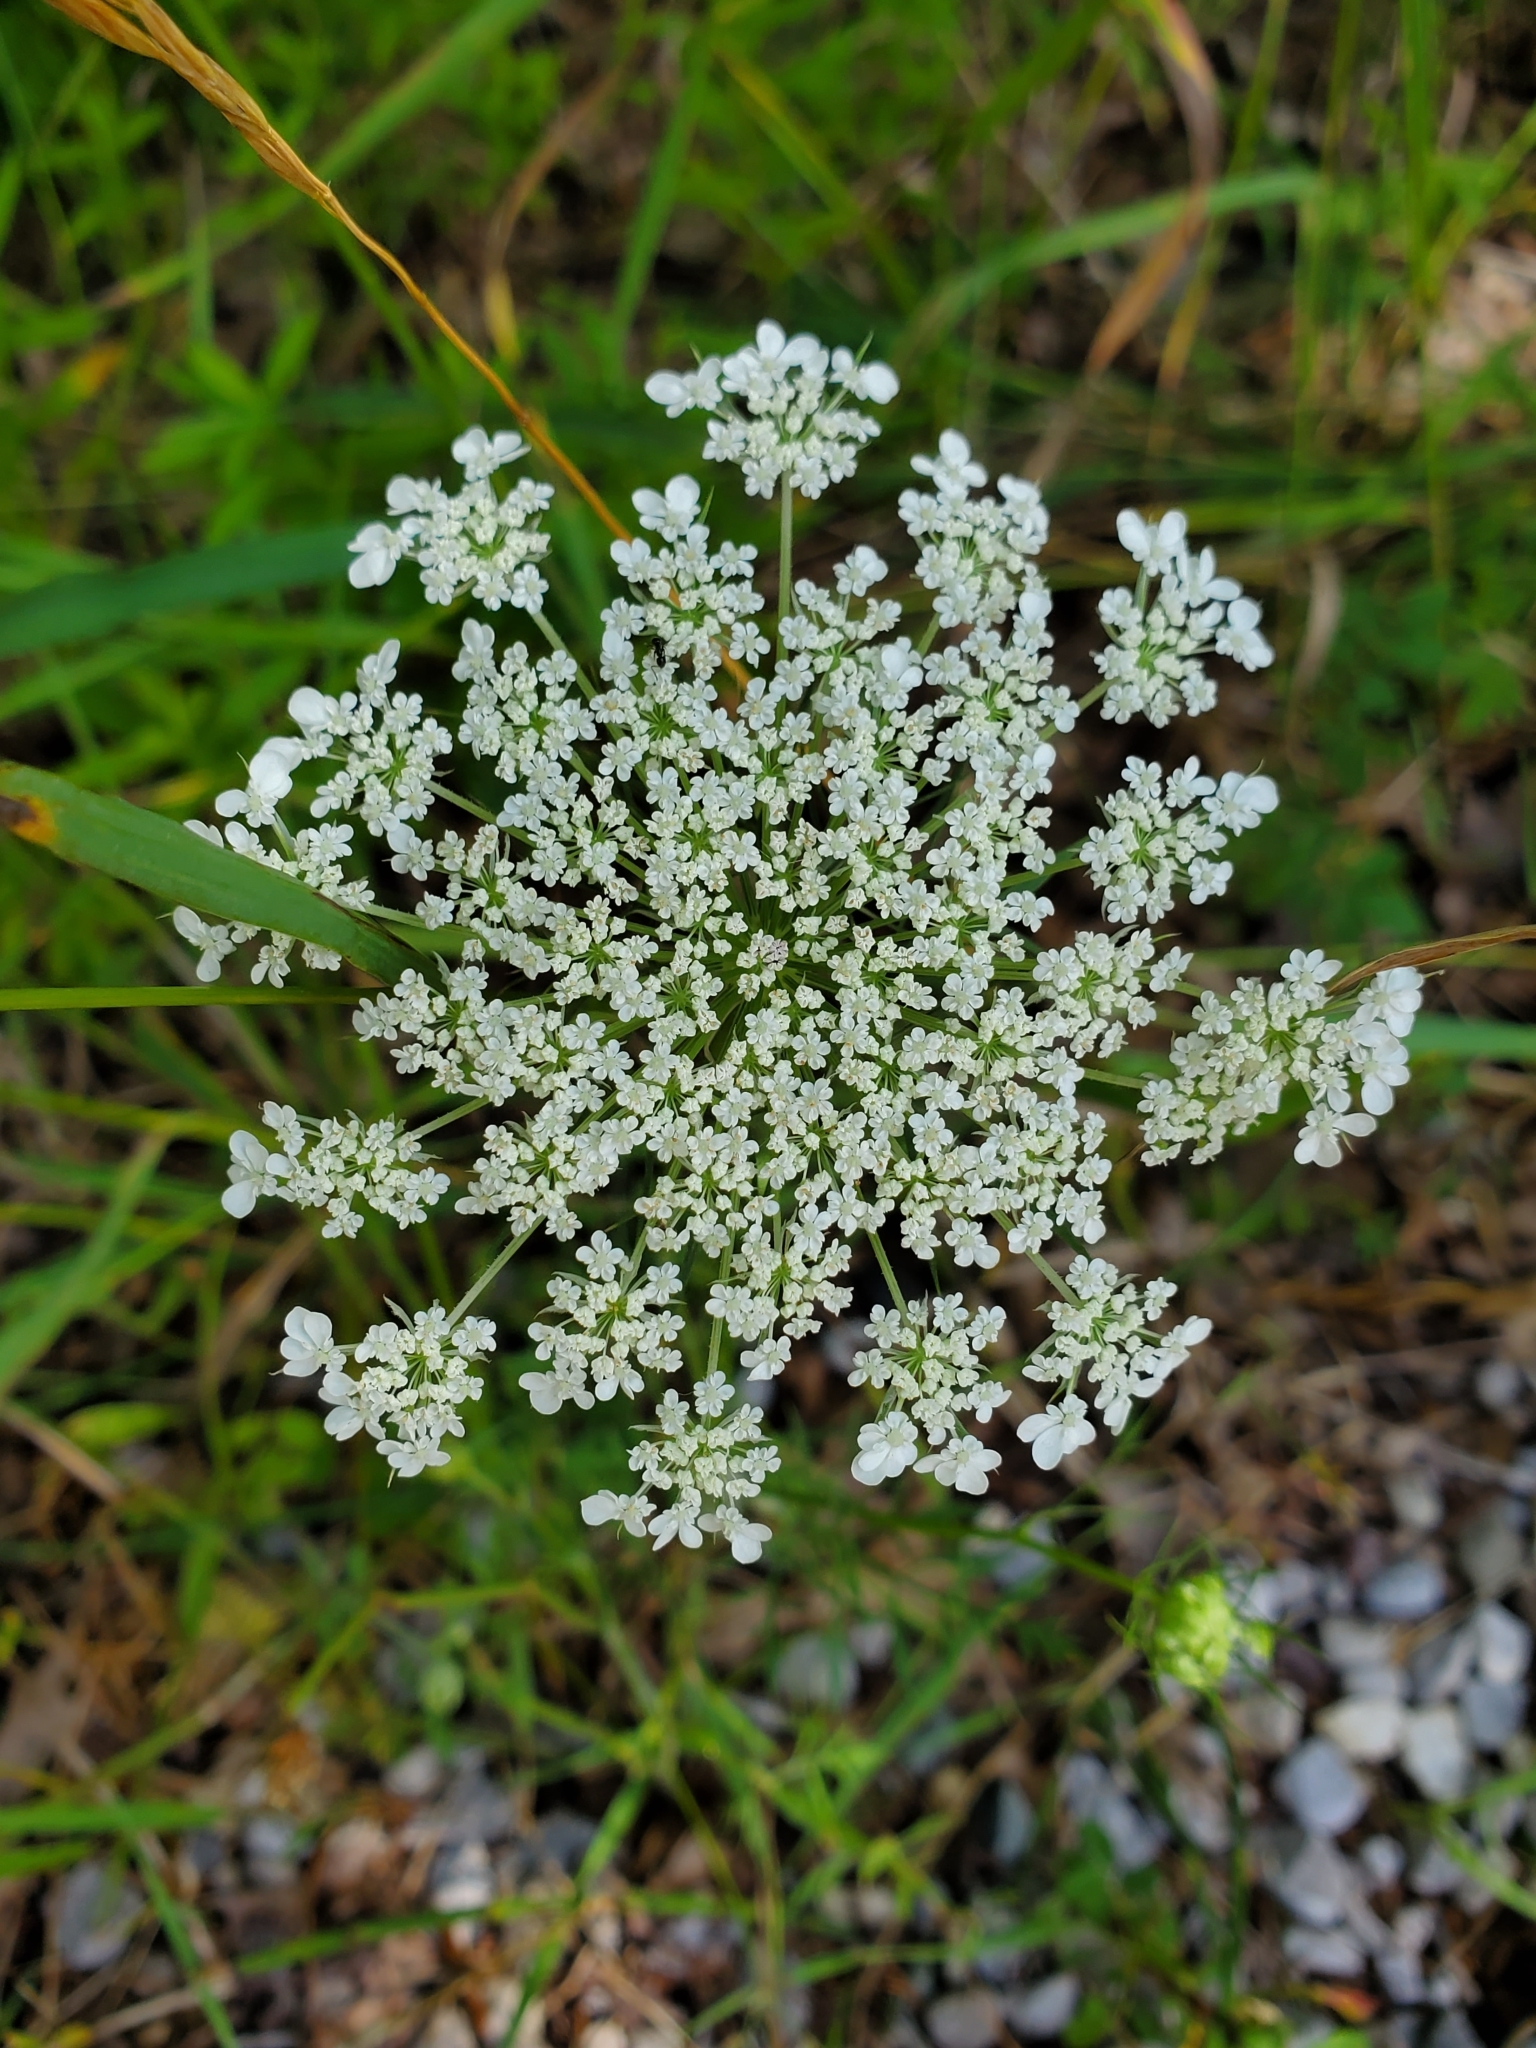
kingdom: Plantae
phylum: Tracheophyta
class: Magnoliopsida
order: Apiales
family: Apiaceae
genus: Daucus
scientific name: Daucus carota
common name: Wild carrot
